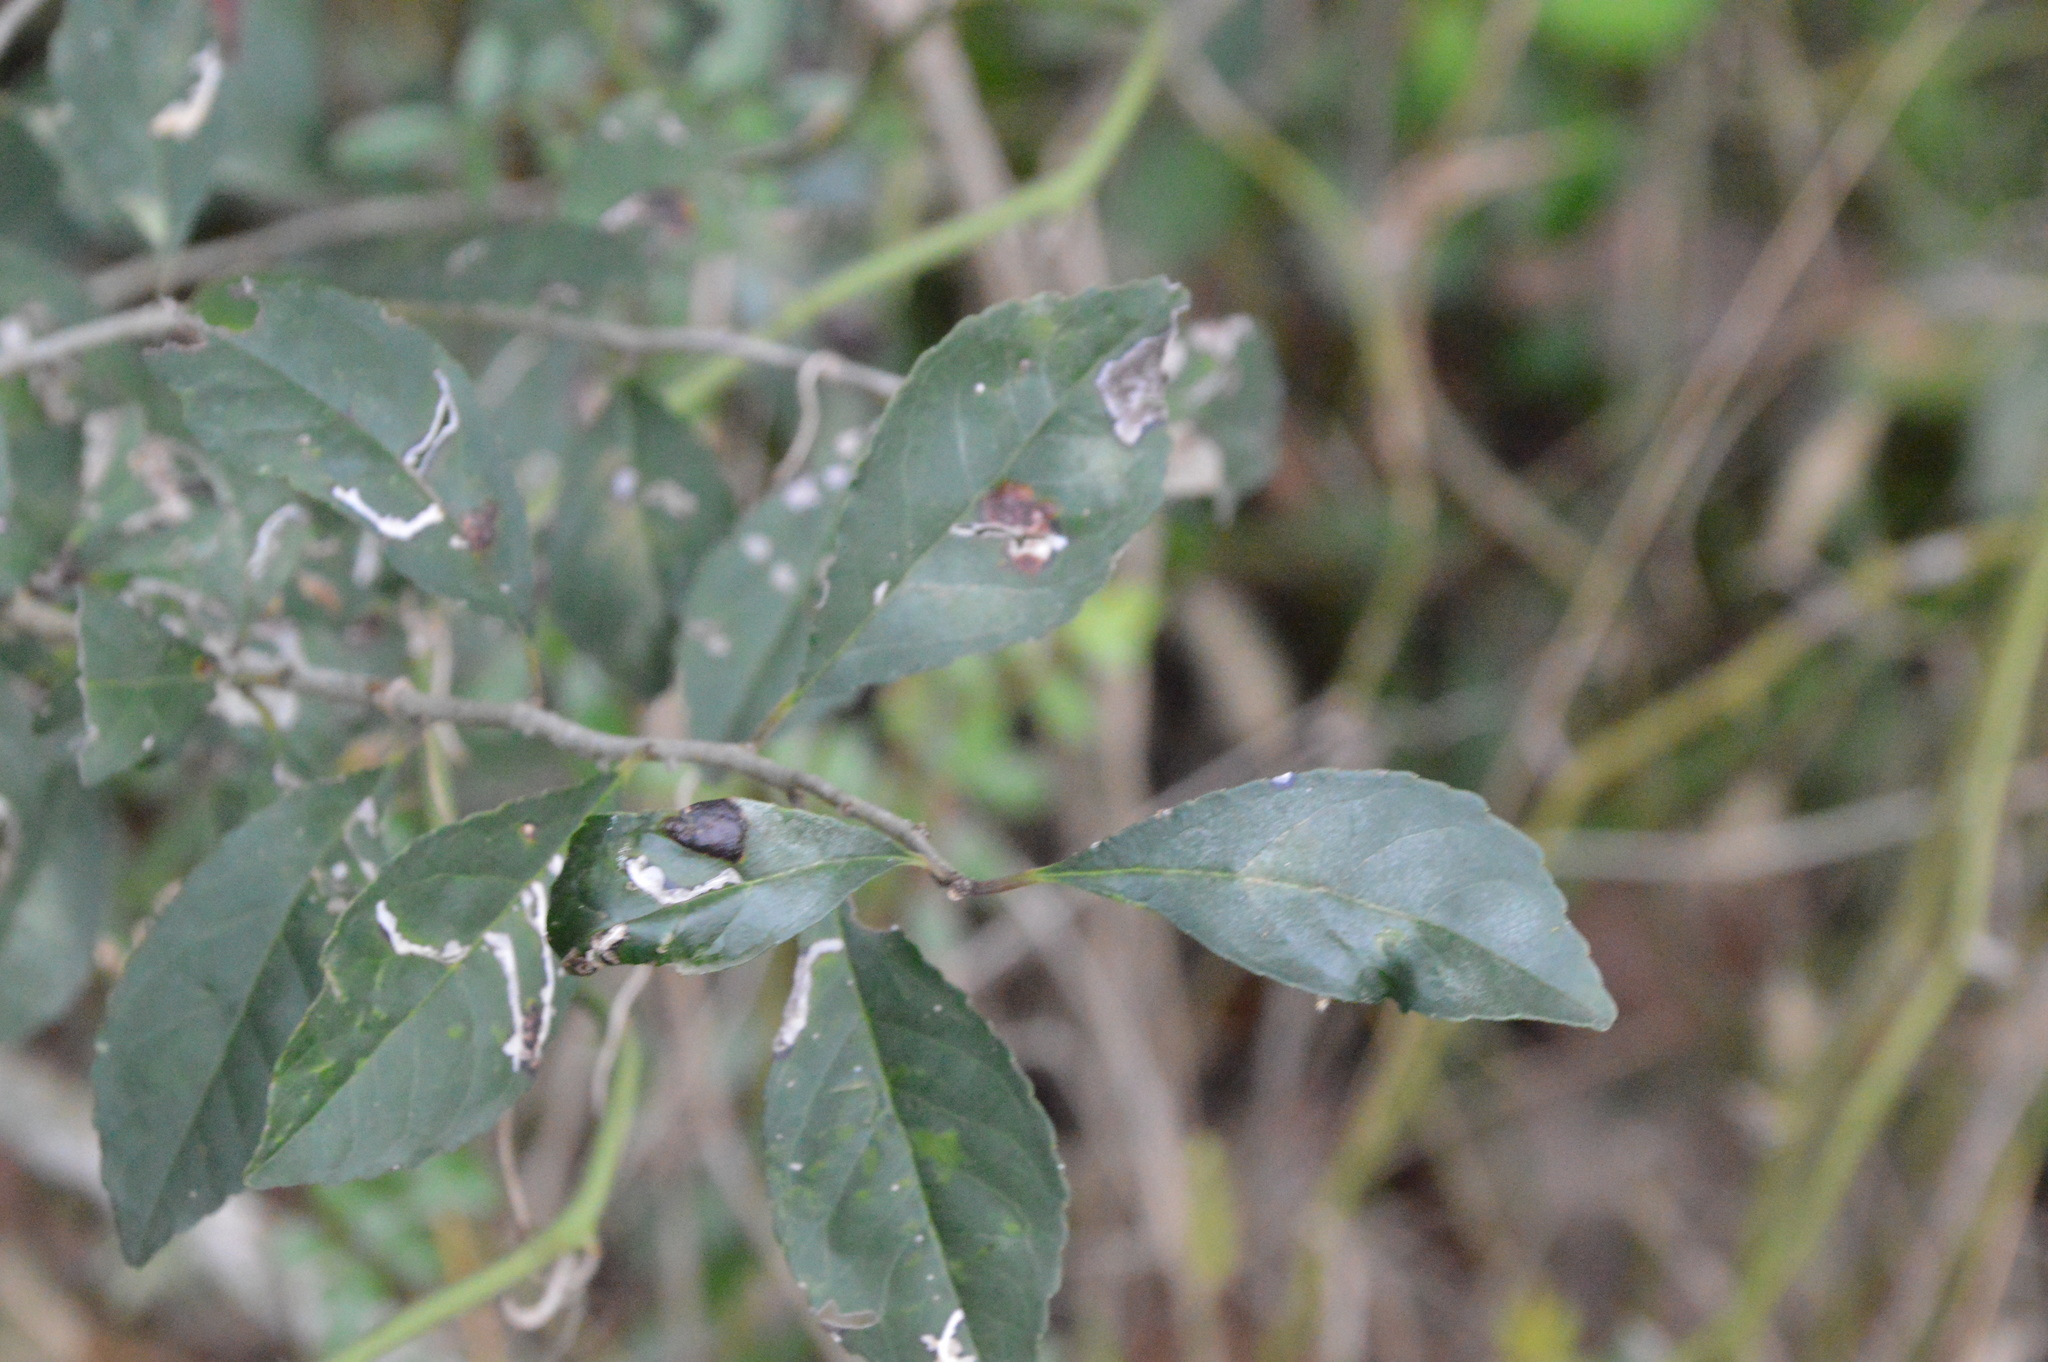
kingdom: Plantae
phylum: Tracheophyta
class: Magnoliopsida
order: Aquifoliales
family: Aquifoliaceae
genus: Ilex
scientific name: Ilex decidua
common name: Possum-haw
